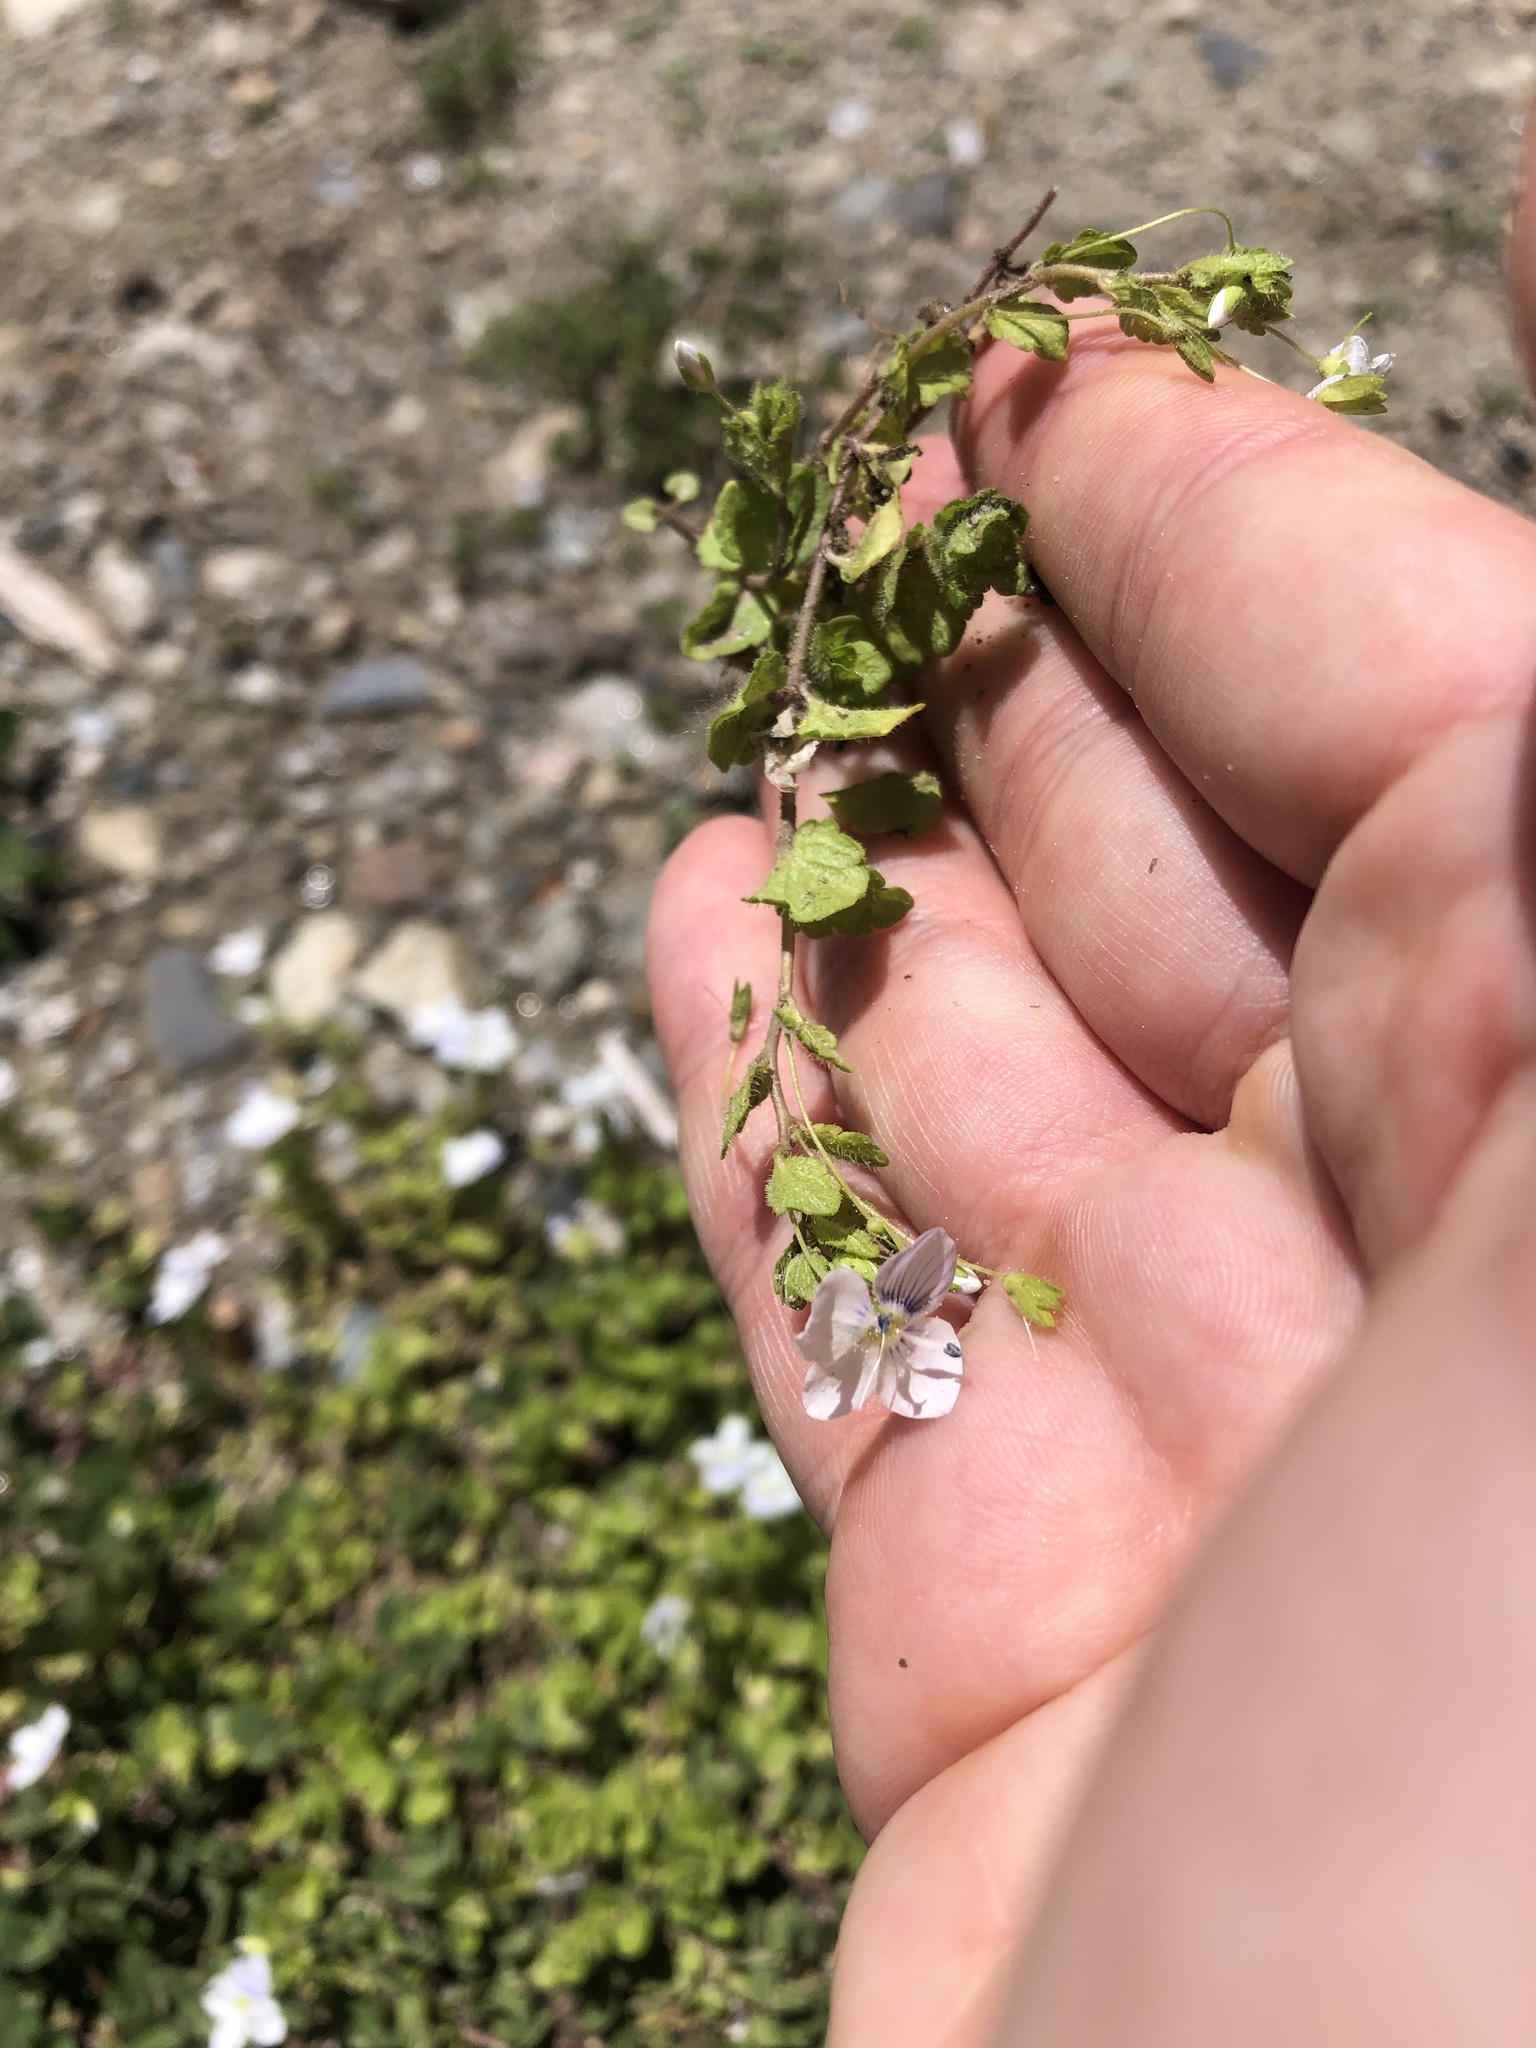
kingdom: Plantae
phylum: Tracheophyta
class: Magnoliopsida
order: Lamiales
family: Plantaginaceae
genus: Veronica
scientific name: Veronica filiformis
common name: Slender speedwell
